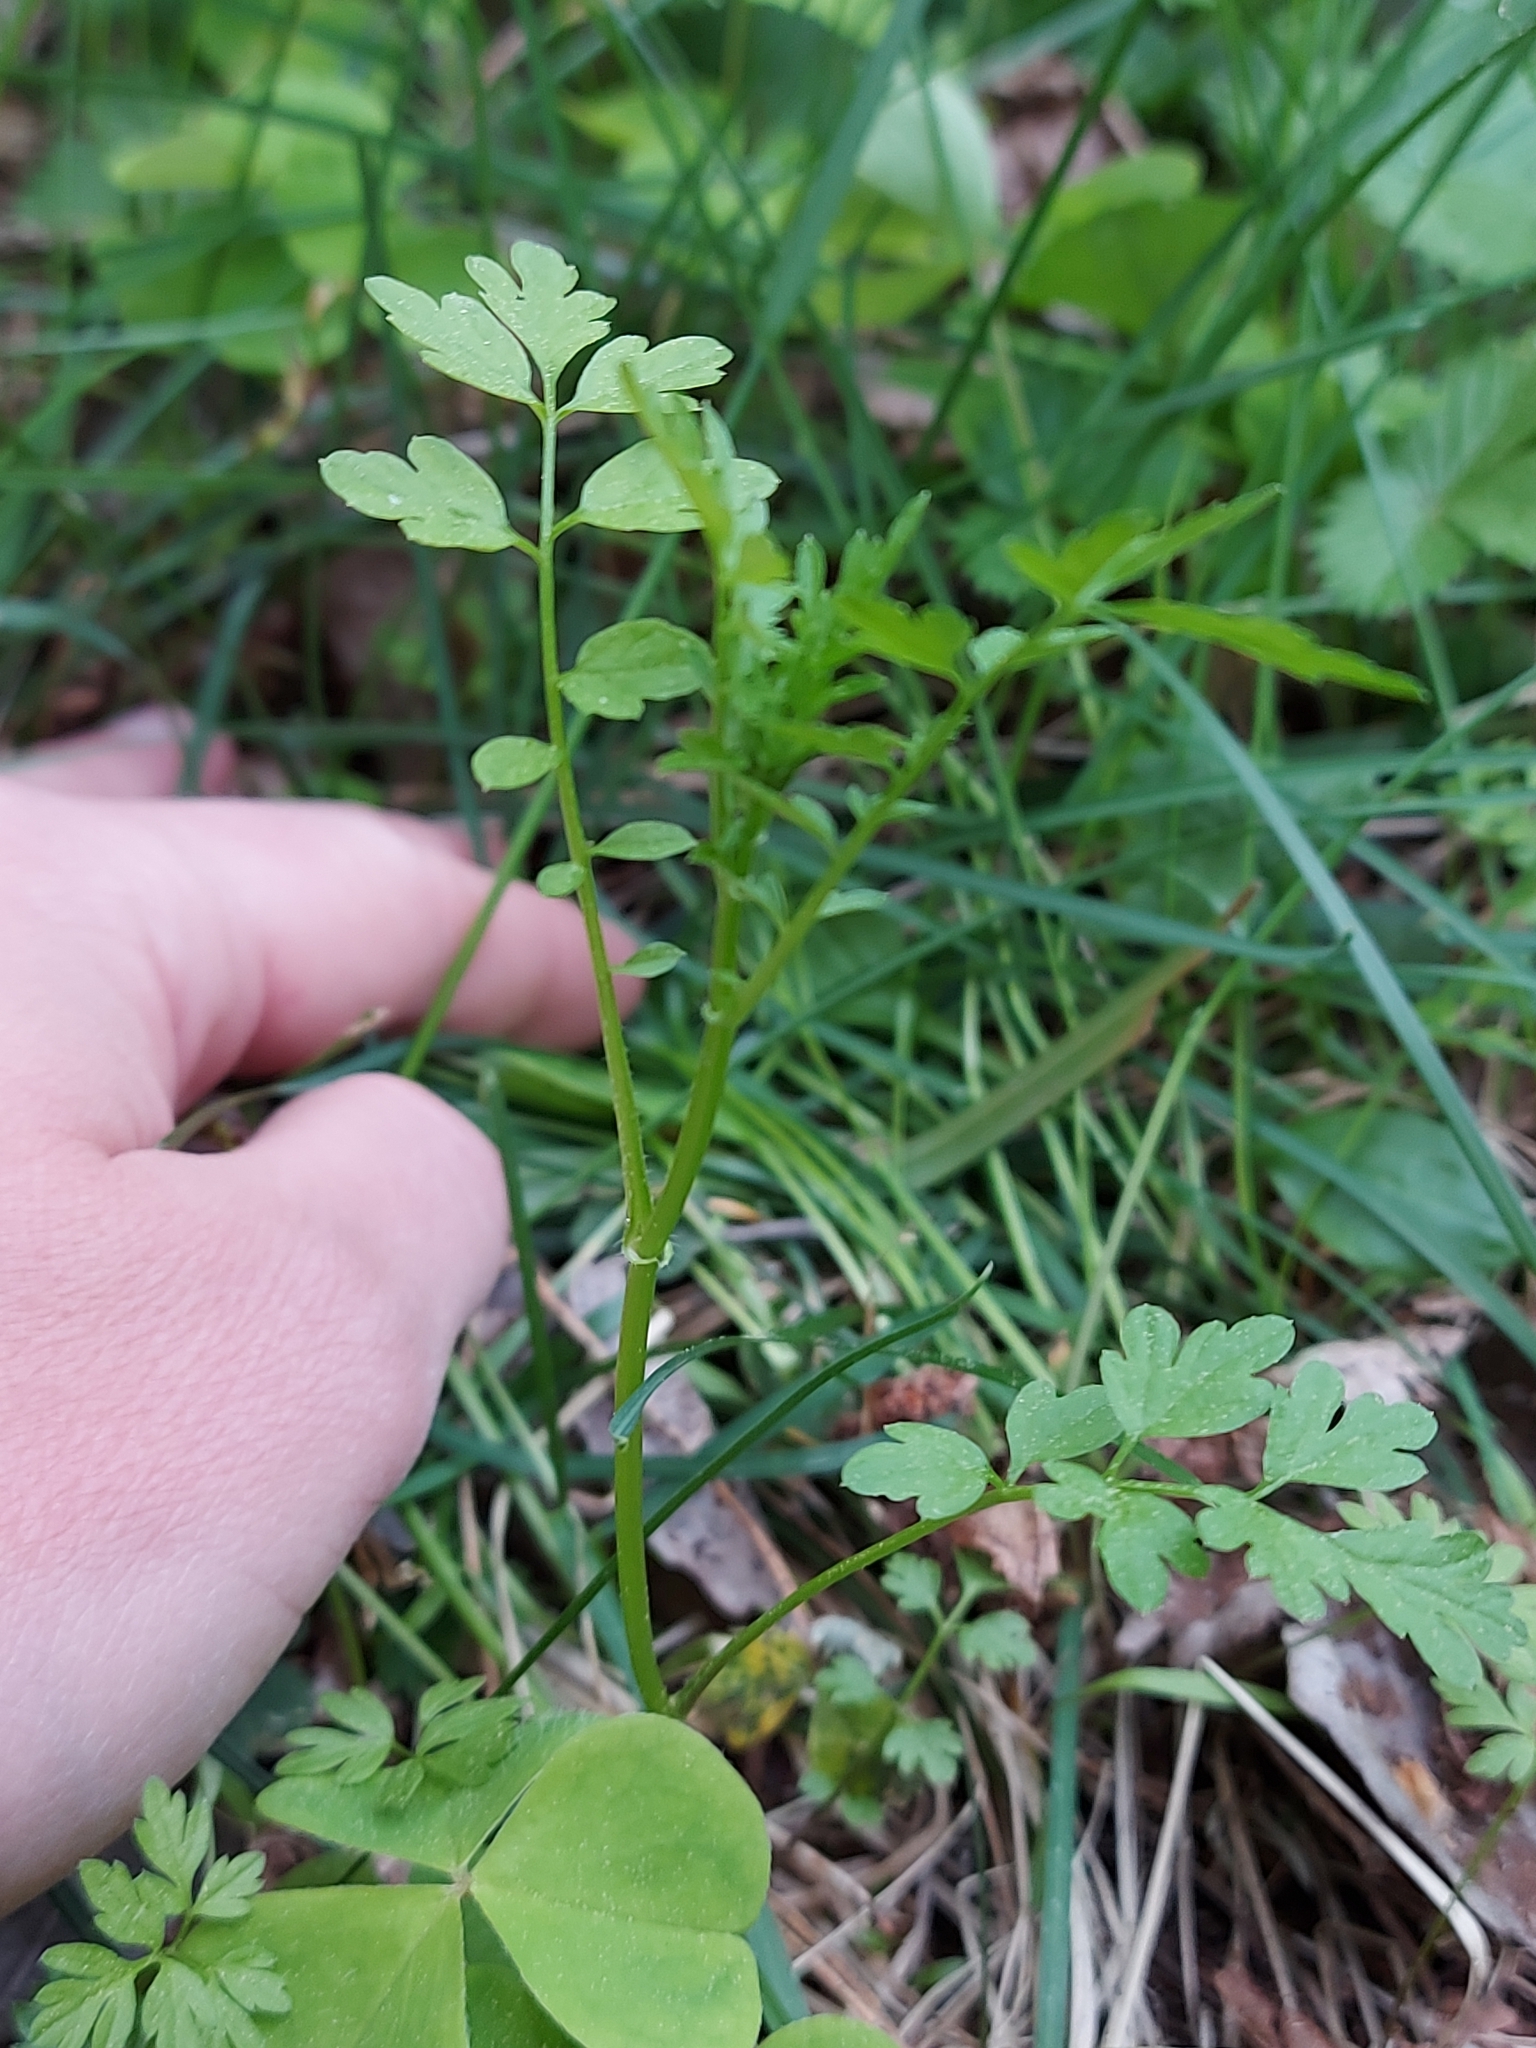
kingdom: Plantae
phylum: Tracheophyta
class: Magnoliopsida
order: Brassicales
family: Brassicaceae
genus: Cardamine
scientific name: Cardamine impatiens
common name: Narrow-leaved bitter-cress
